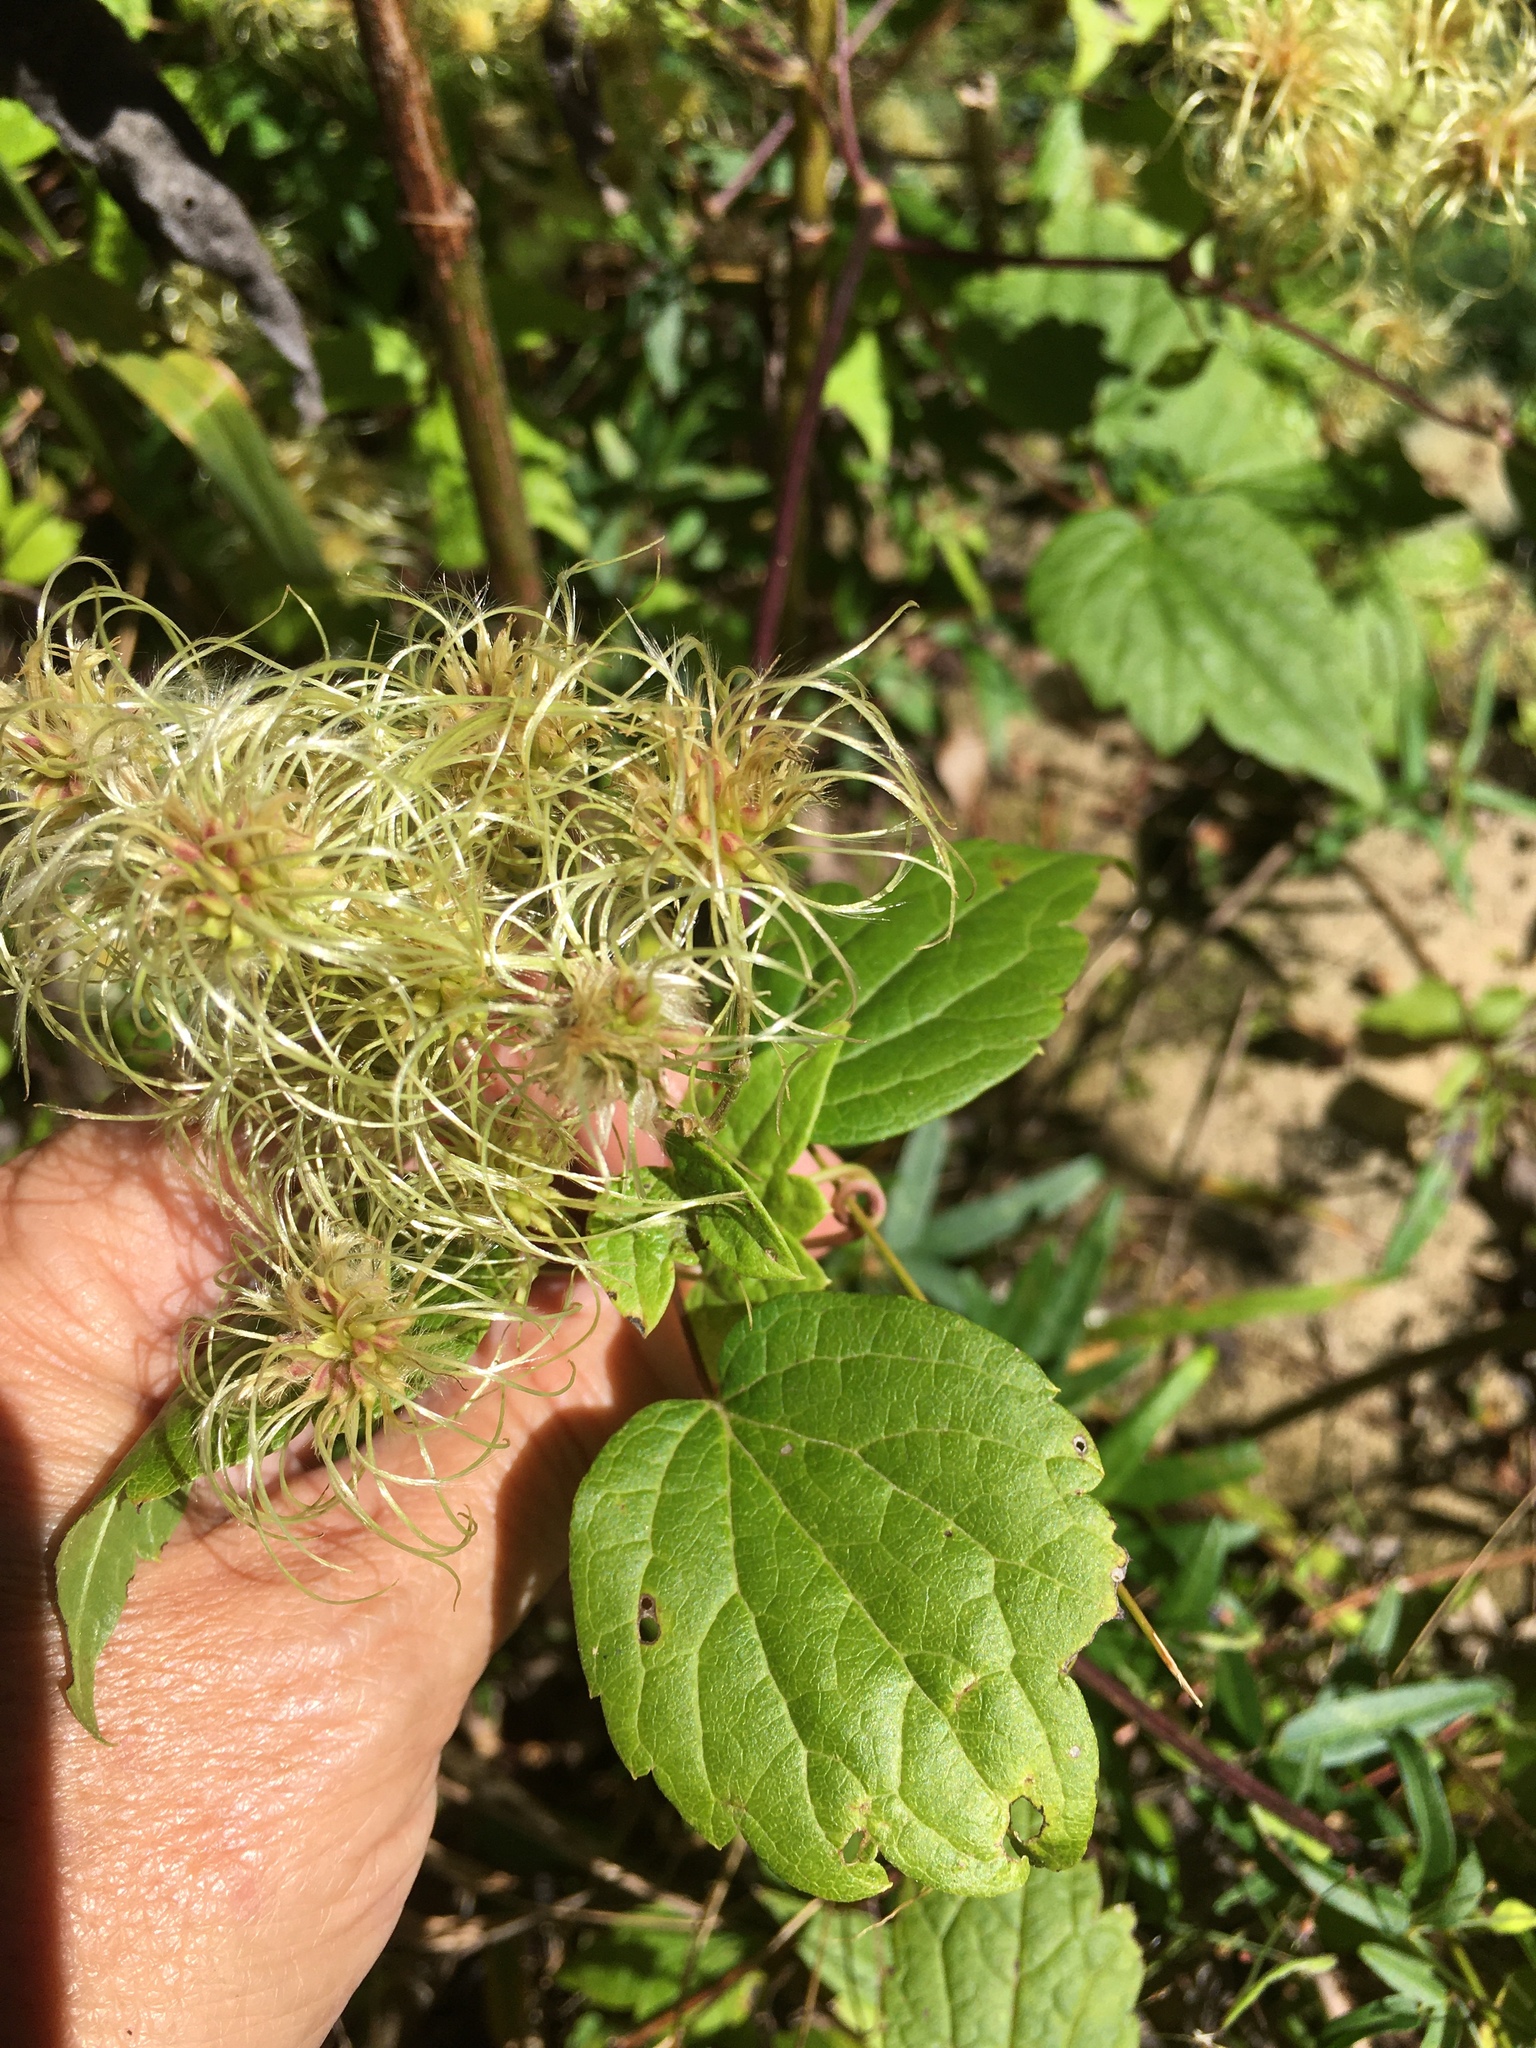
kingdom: Plantae
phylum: Tracheophyta
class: Magnoliopsida
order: Ranunculales
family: Ranunculaceae
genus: Clematis
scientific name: Clematis virginiana
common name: Virgin's-bower
